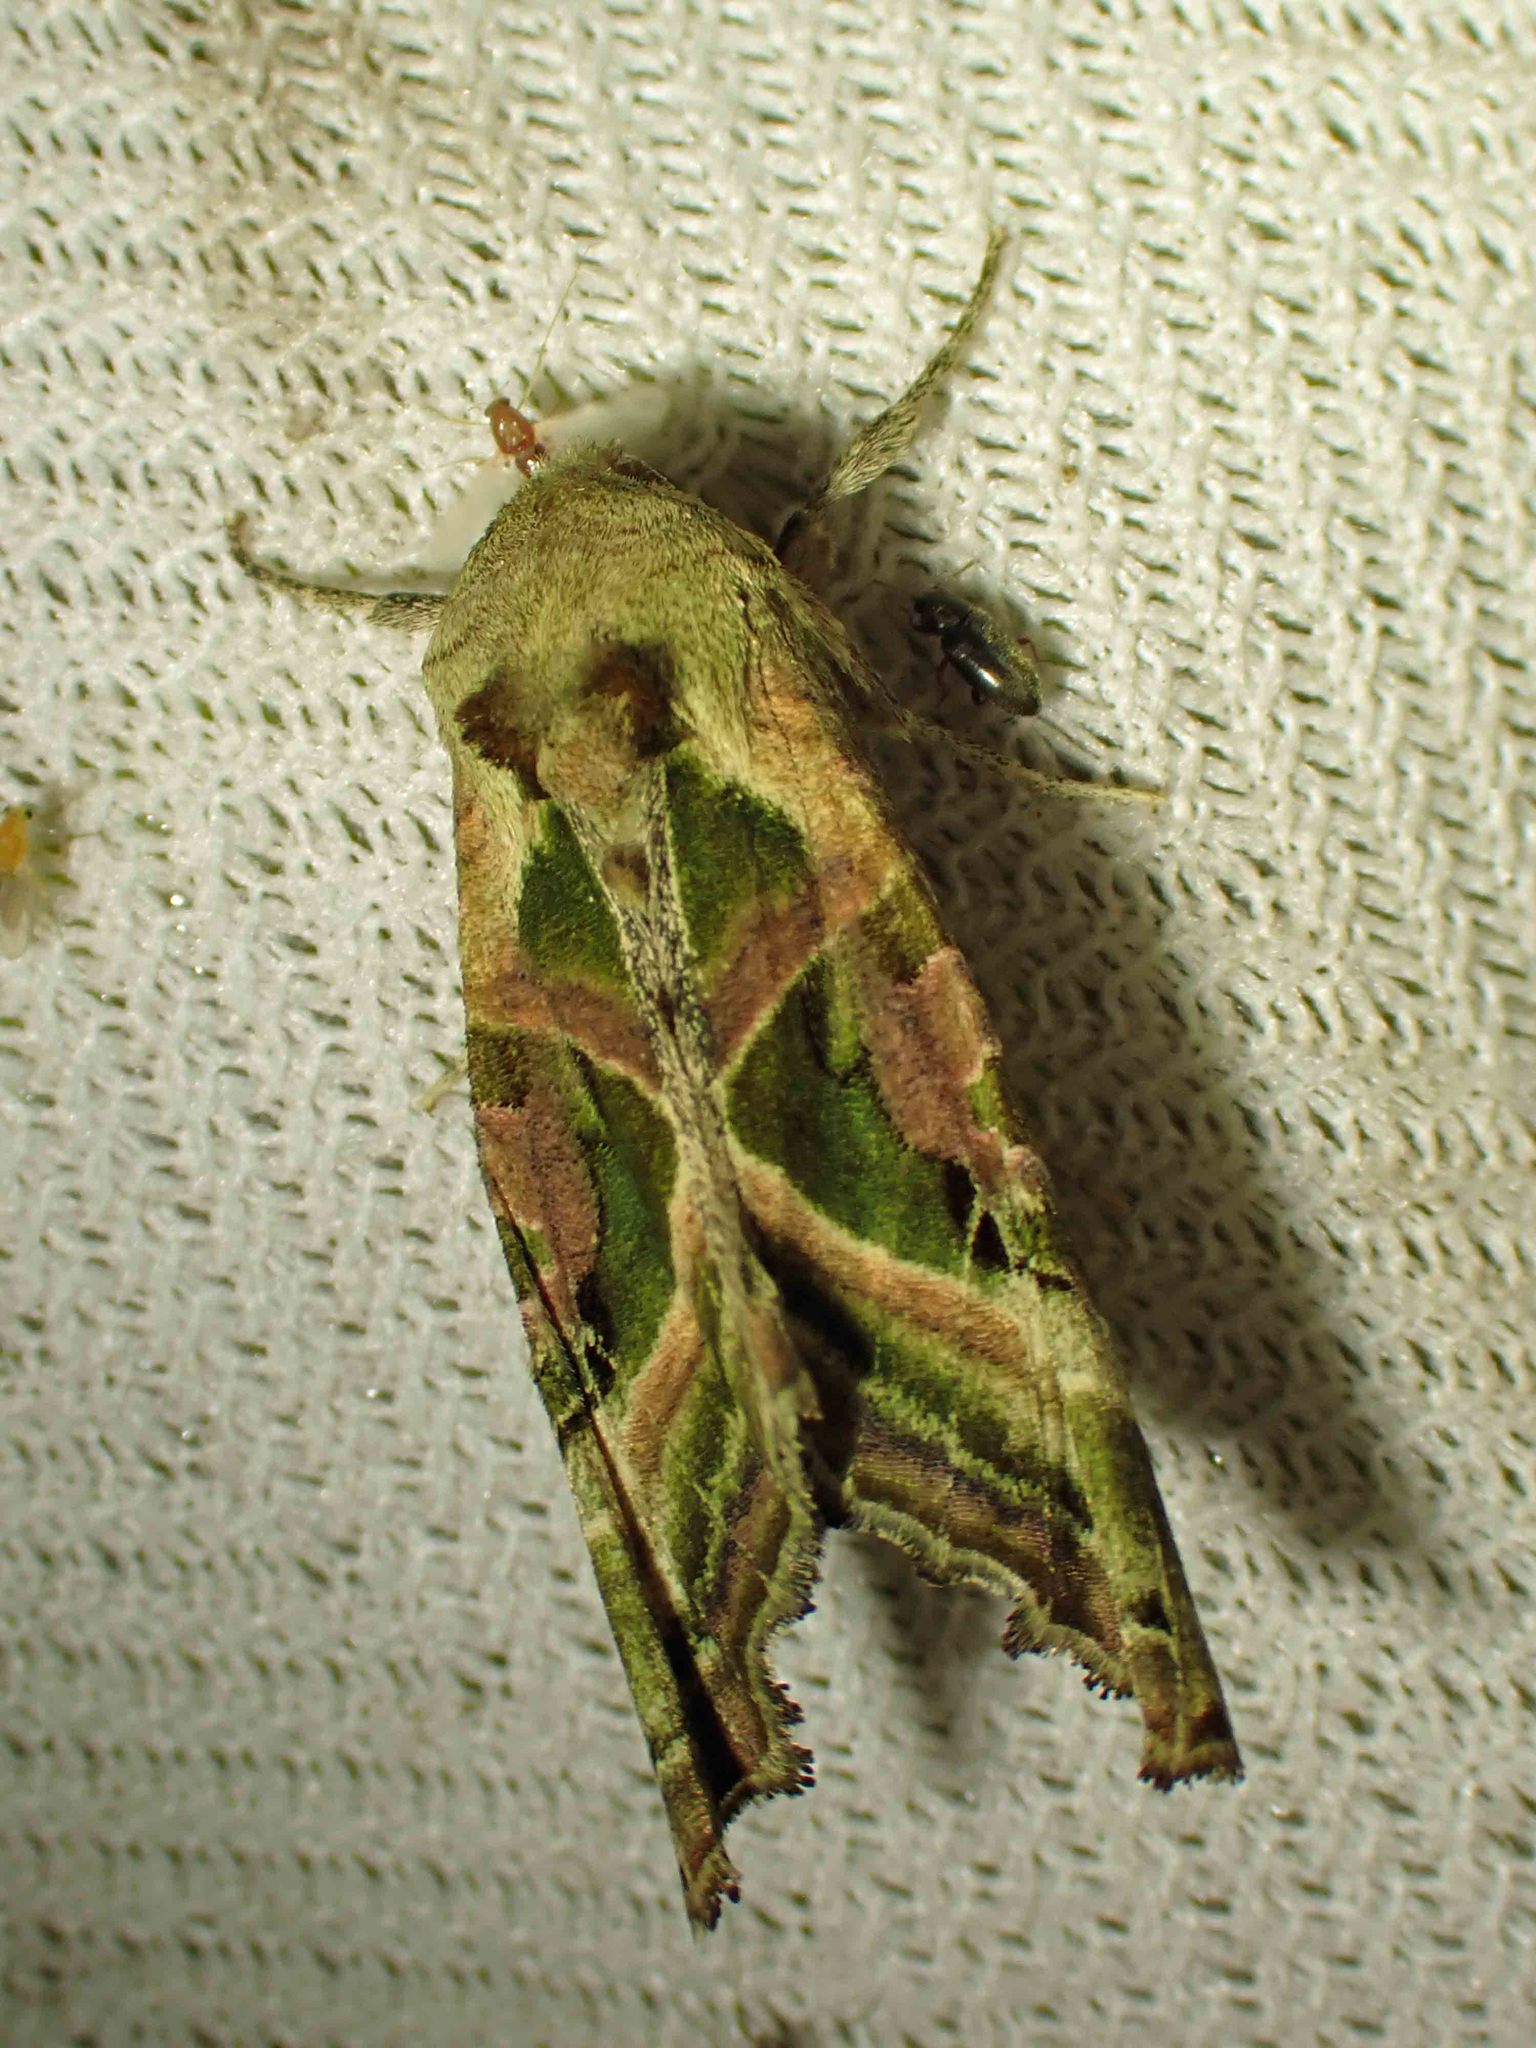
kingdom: Animalia
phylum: Arthropoda
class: Insecta
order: Lepidoptera
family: Noctuidae
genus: Phlogophora
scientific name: Phlogophora iris
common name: Olive angle shades
